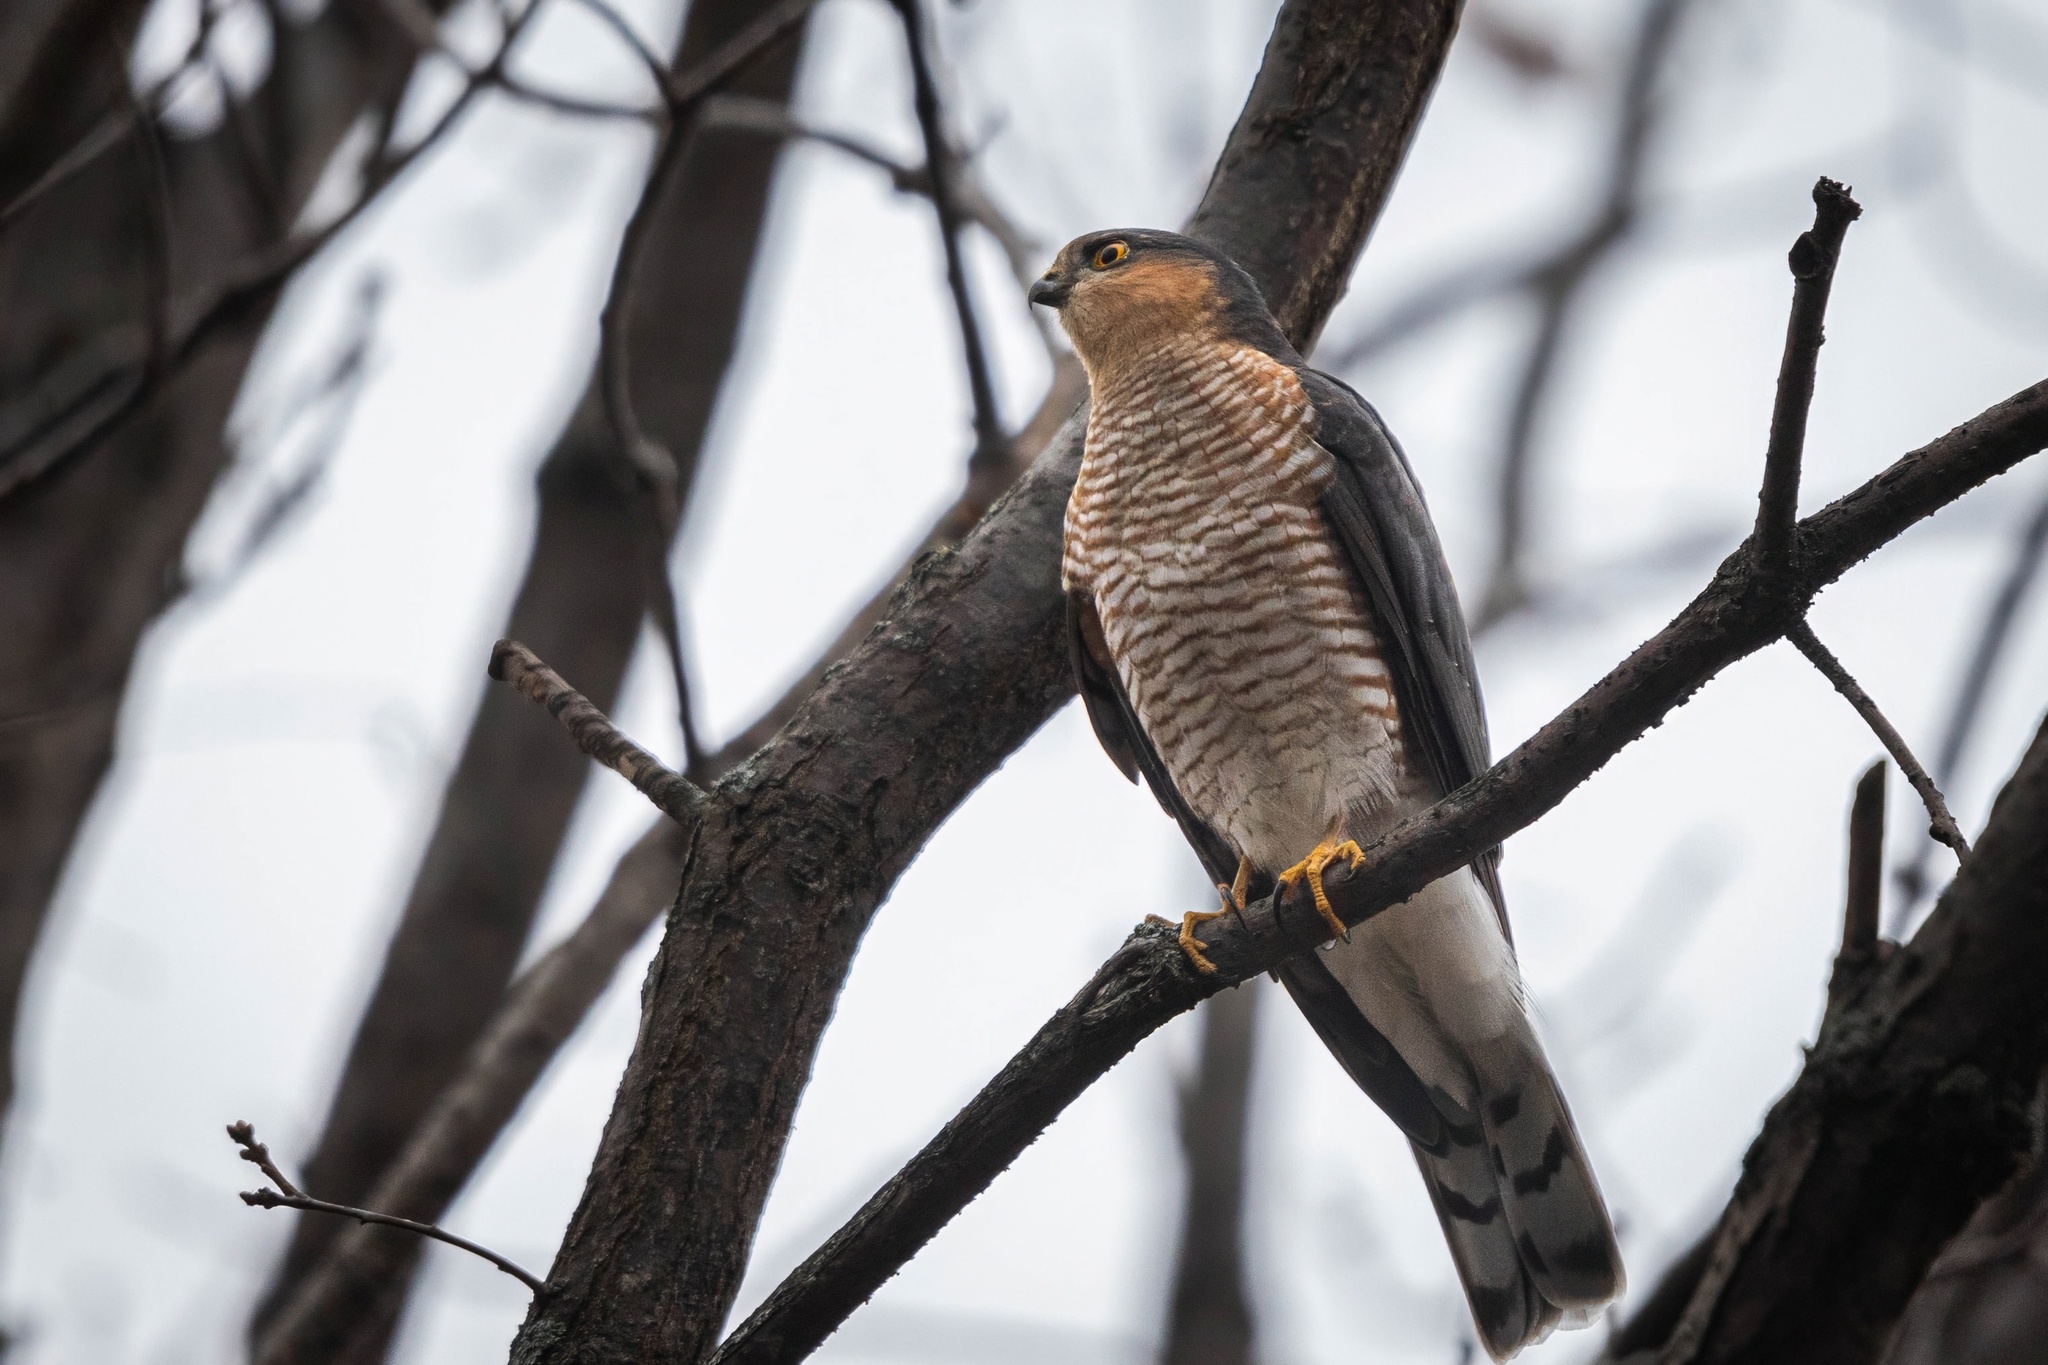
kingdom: Animalia
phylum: Chordata
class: Aves
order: Accipitriformes
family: Accipitridae
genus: Accipiter
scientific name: Accipiter nisus
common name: Eurasian sparrowhawk
